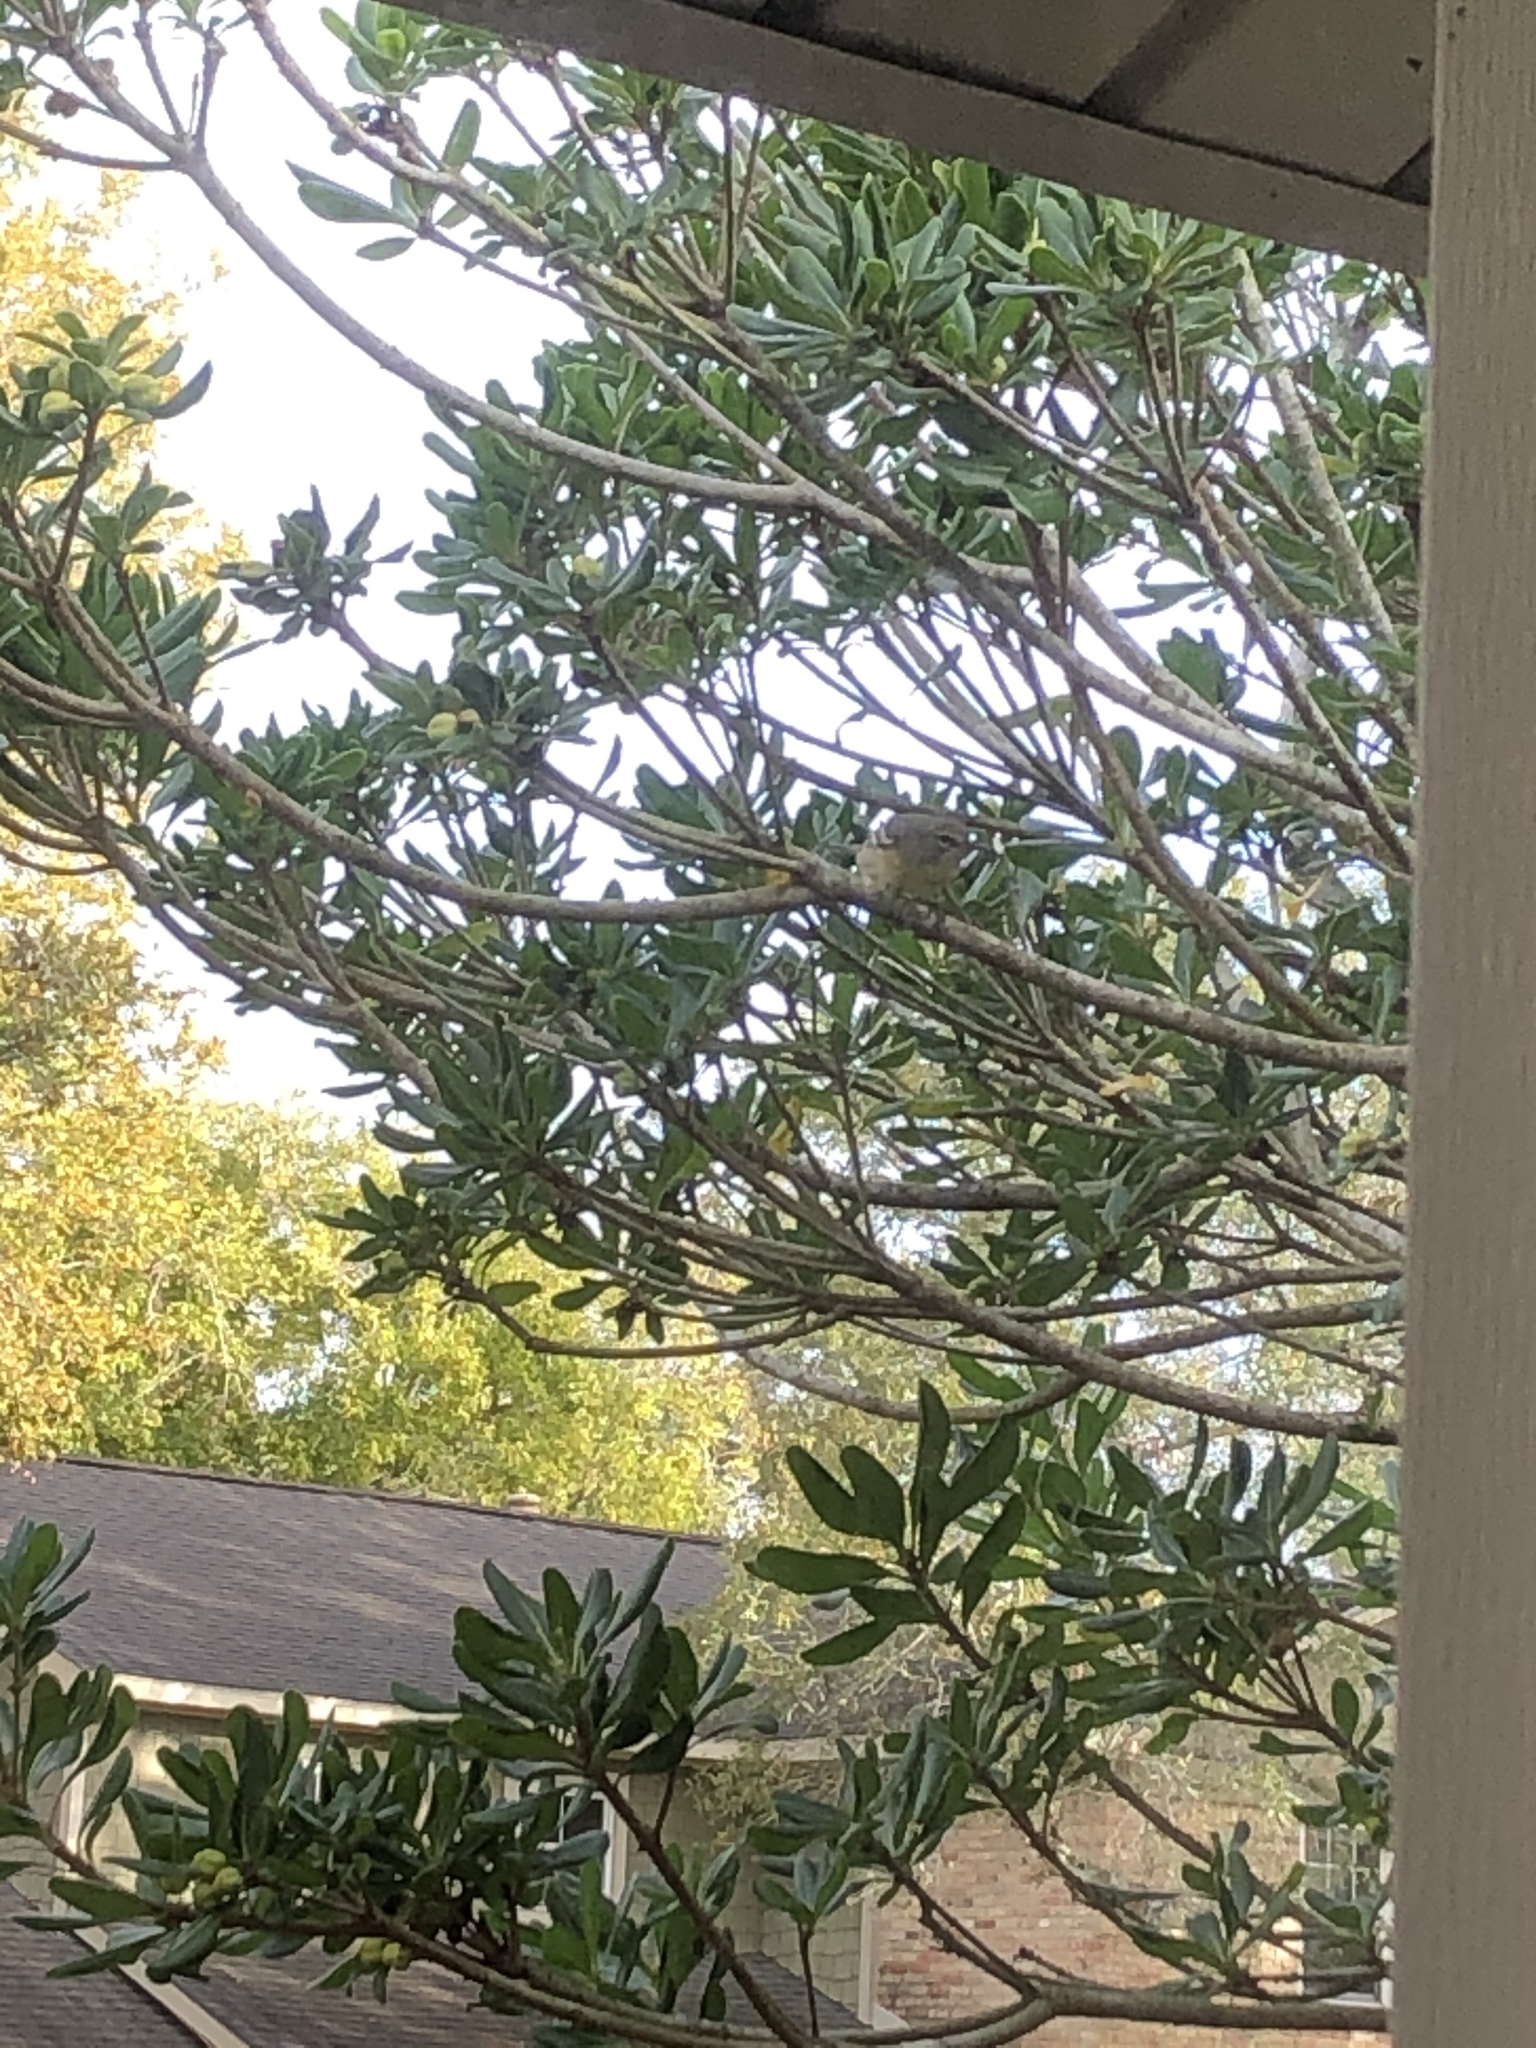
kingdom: Animalia
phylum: Chordata
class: Aves
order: Passeriformes
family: Parulidae
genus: Setophaga
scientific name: Setophaga pinus
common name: Pine warbler
